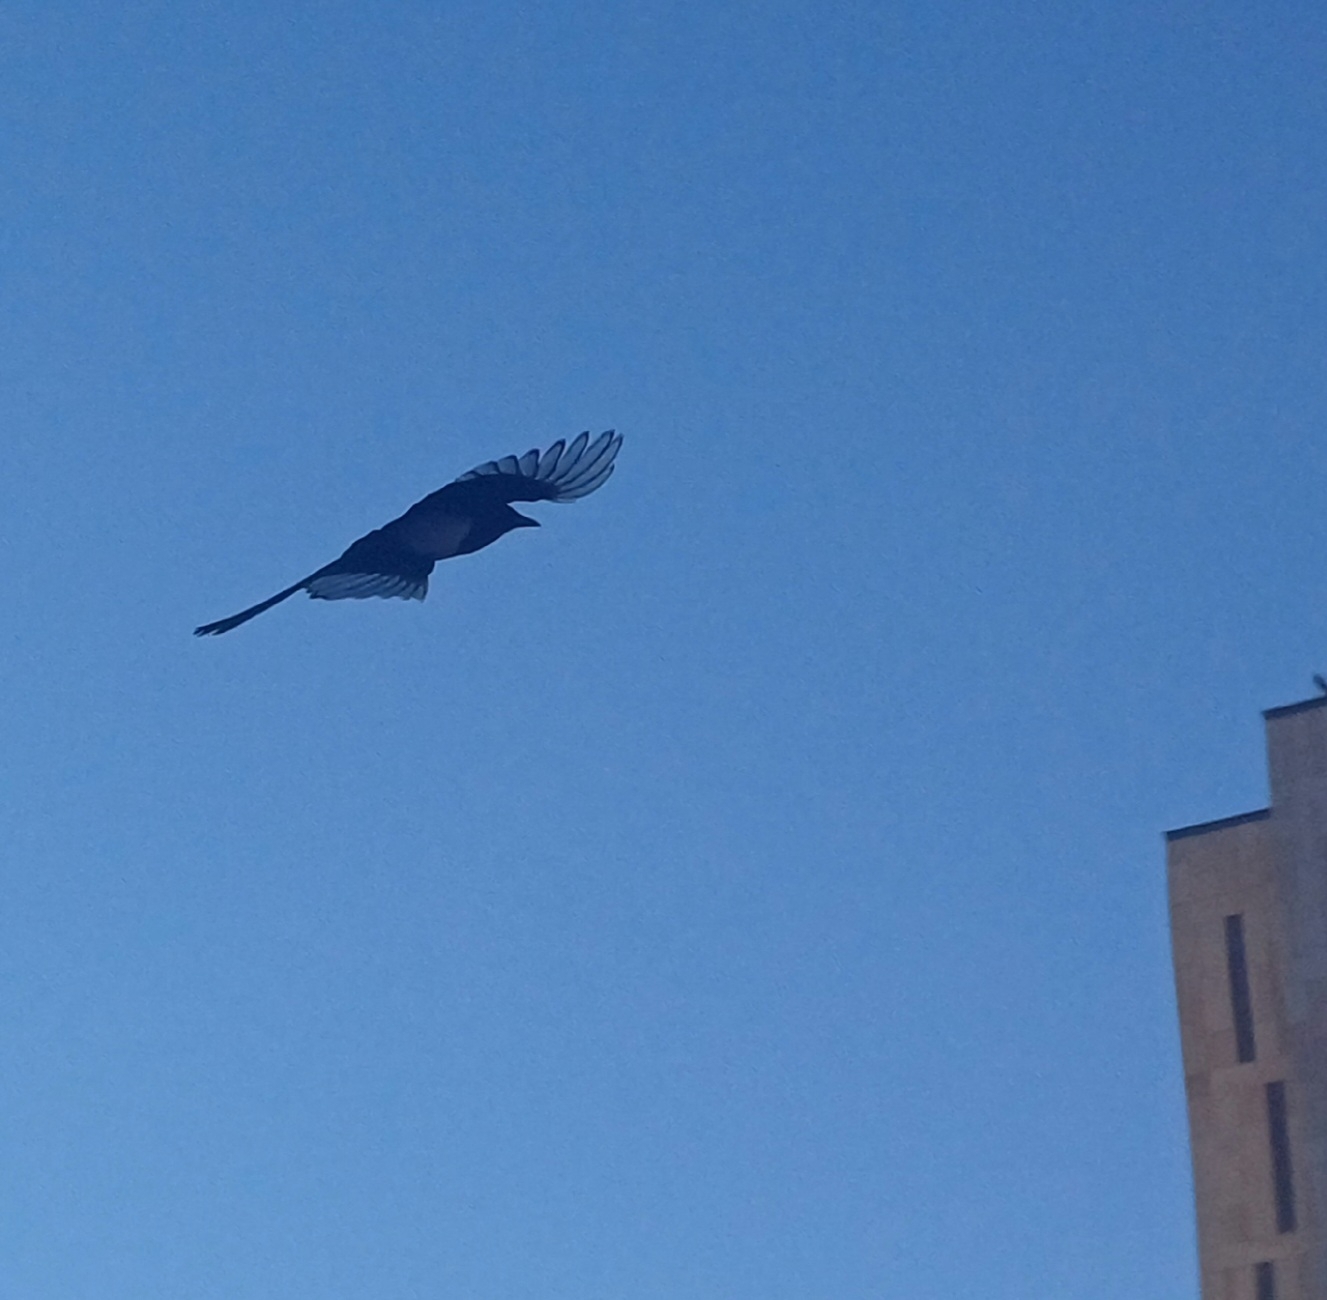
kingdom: Animalia
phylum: Chordata
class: Aves
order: Passeriformes
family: Corvidae
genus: Pica
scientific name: Pica pica
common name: Eurasian magpie
